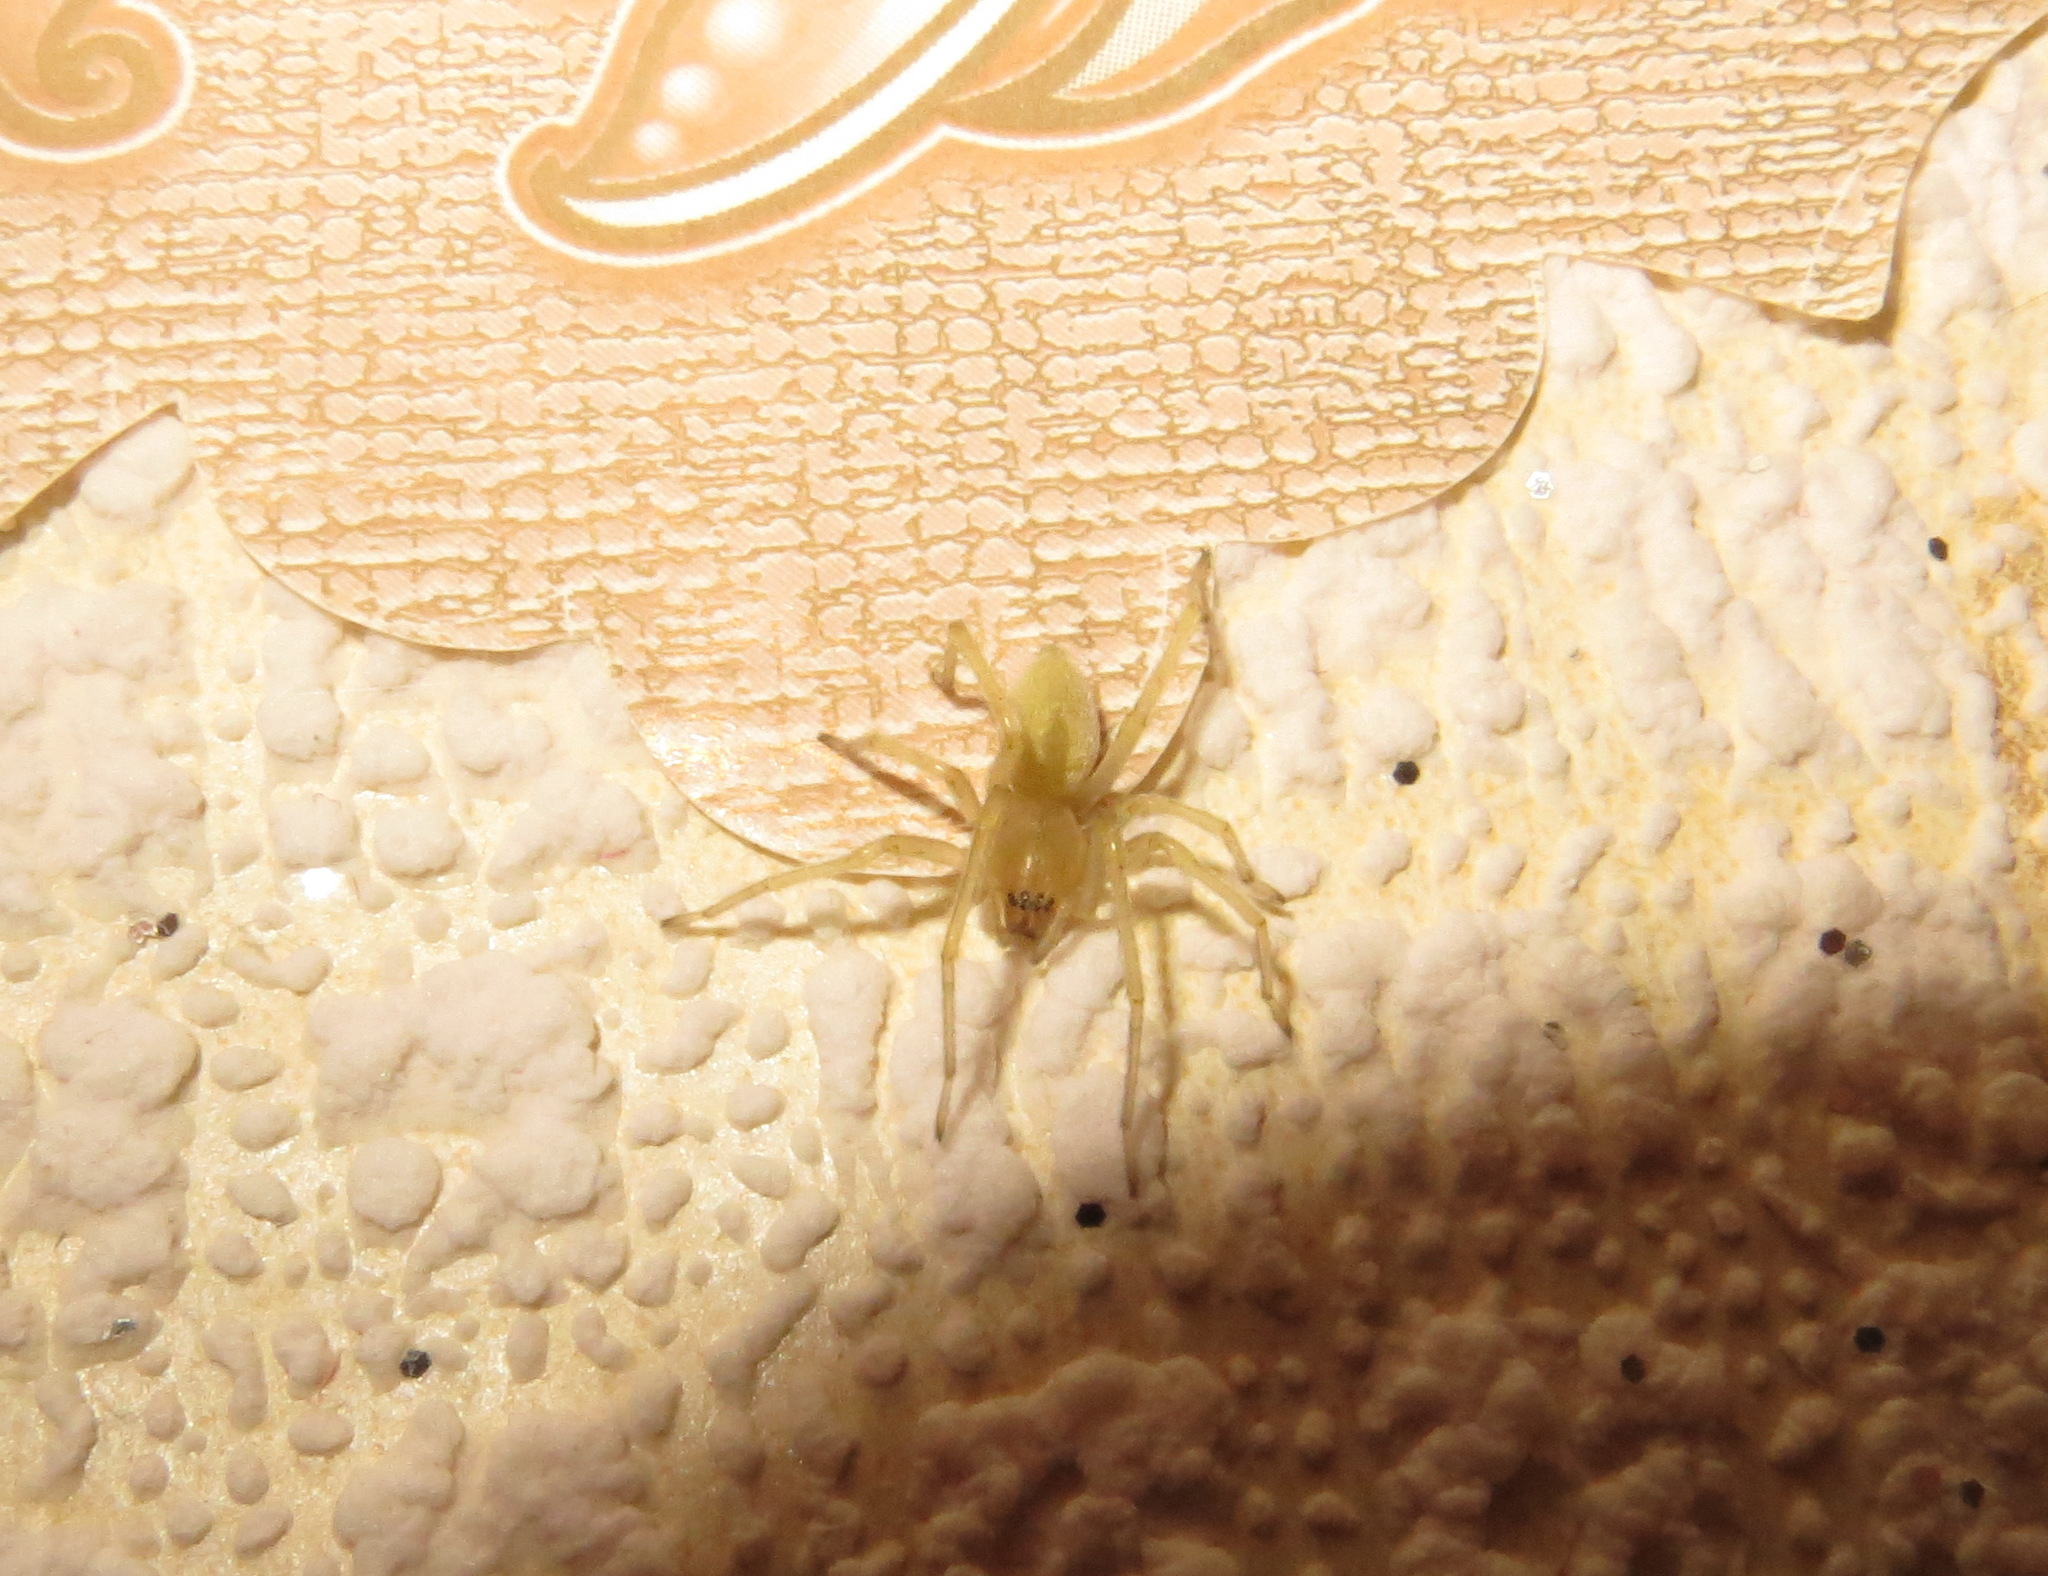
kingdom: Animalia
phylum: Arthropoda
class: Arachnida
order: Araneae
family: Cheiracanthiidae
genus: Cheiracanthium
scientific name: Cheiracanthium mildei
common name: Northern yellow sac spider
